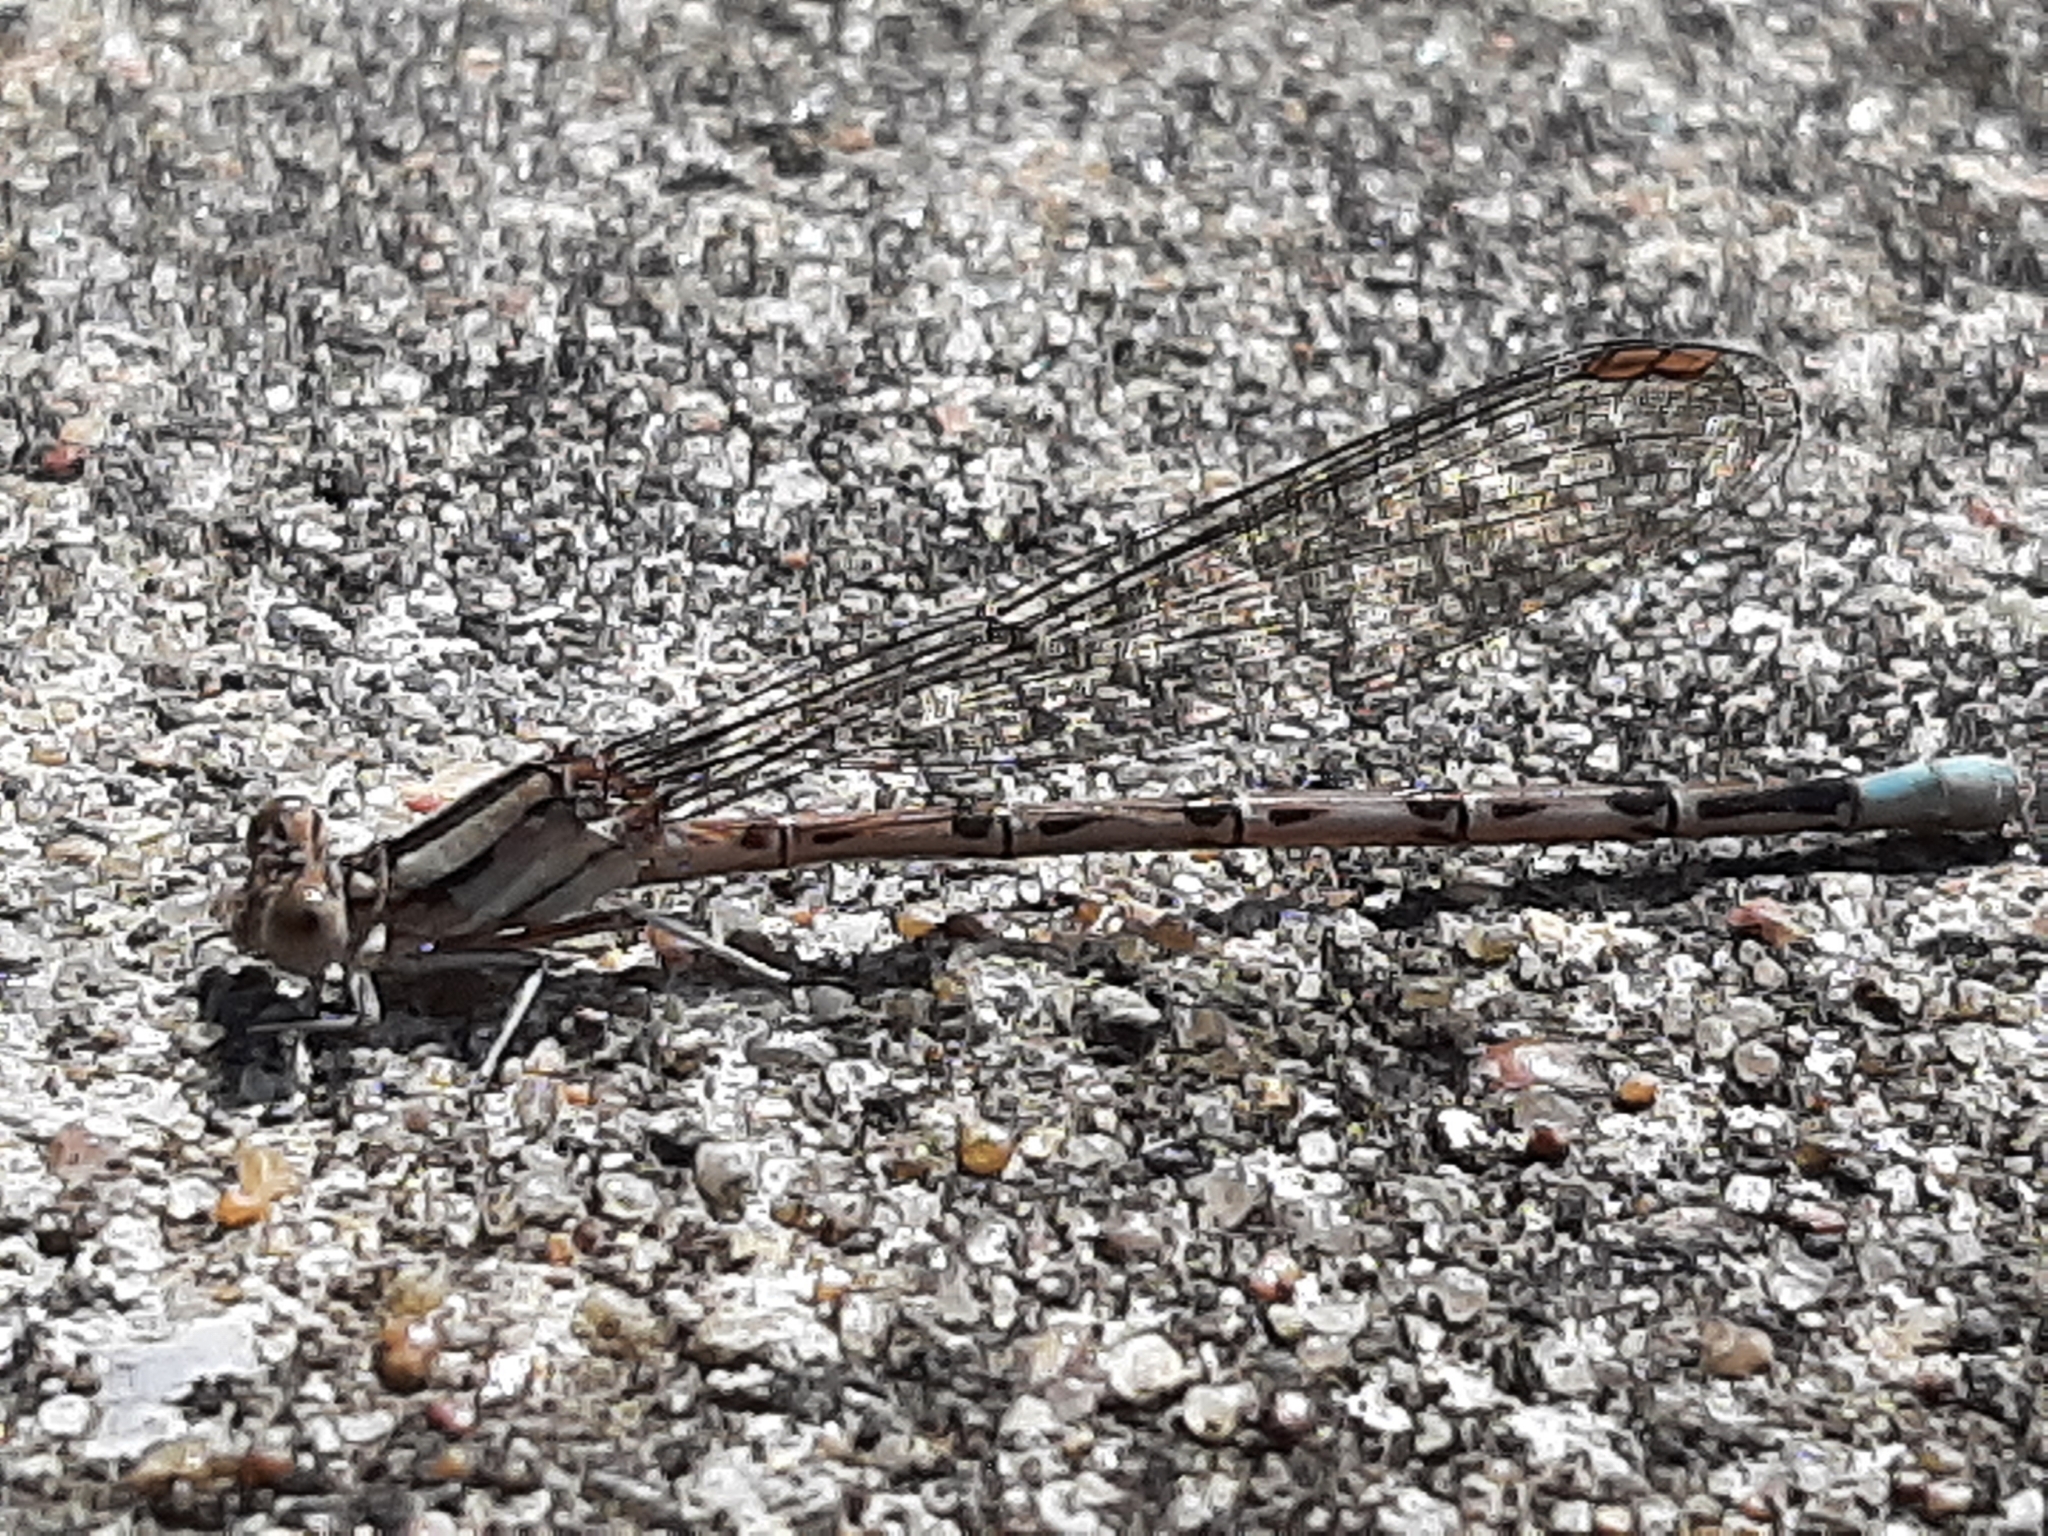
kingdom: Animalia
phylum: Arthropoda
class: Insecta
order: Odonata
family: Coenagrionidae
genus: Argia
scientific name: Argia funebris
